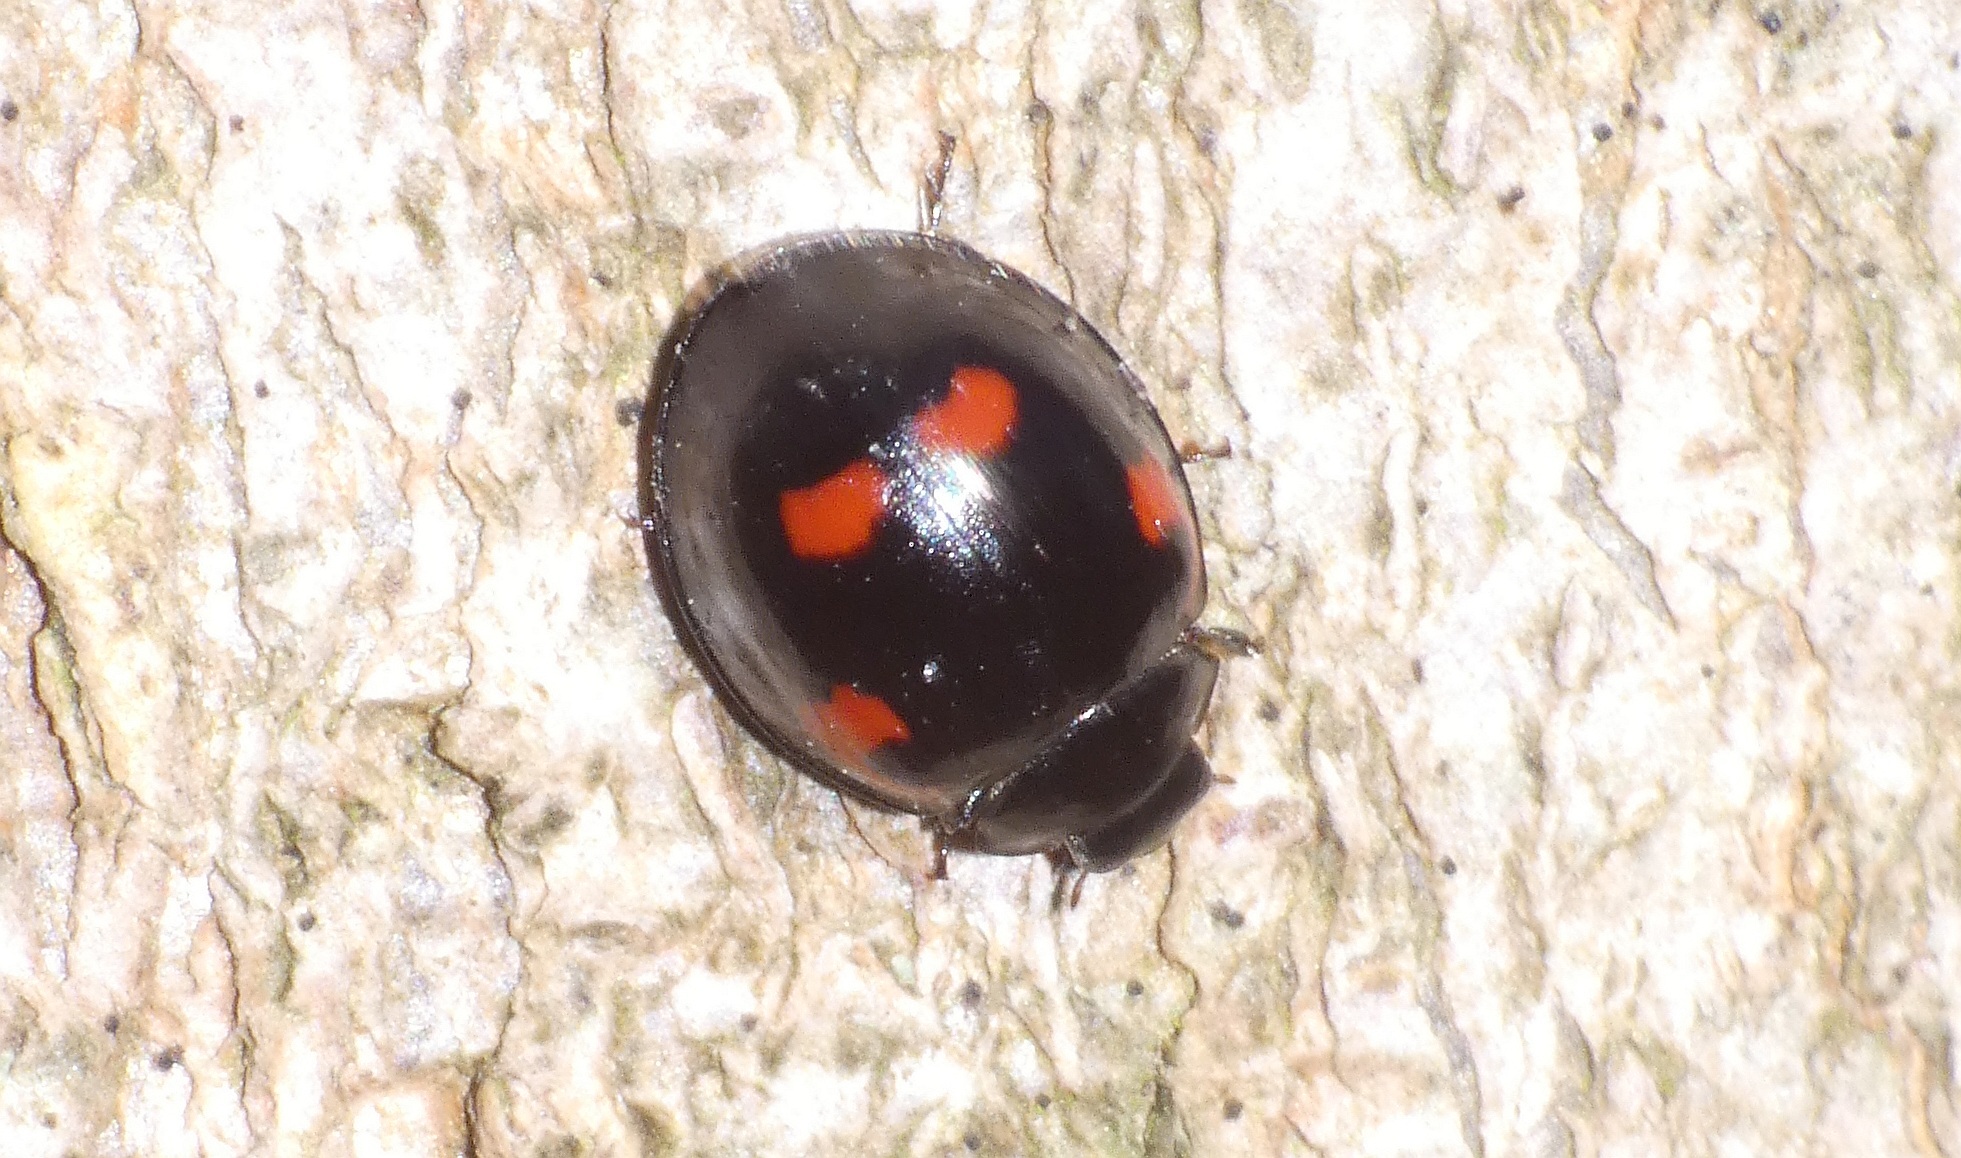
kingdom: Animalia
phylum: Arthropoda
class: Insecta
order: Coleoptera
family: Coccinellidae
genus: Brumus
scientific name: Brumus quadripustulatus
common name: Ladybird beetle
